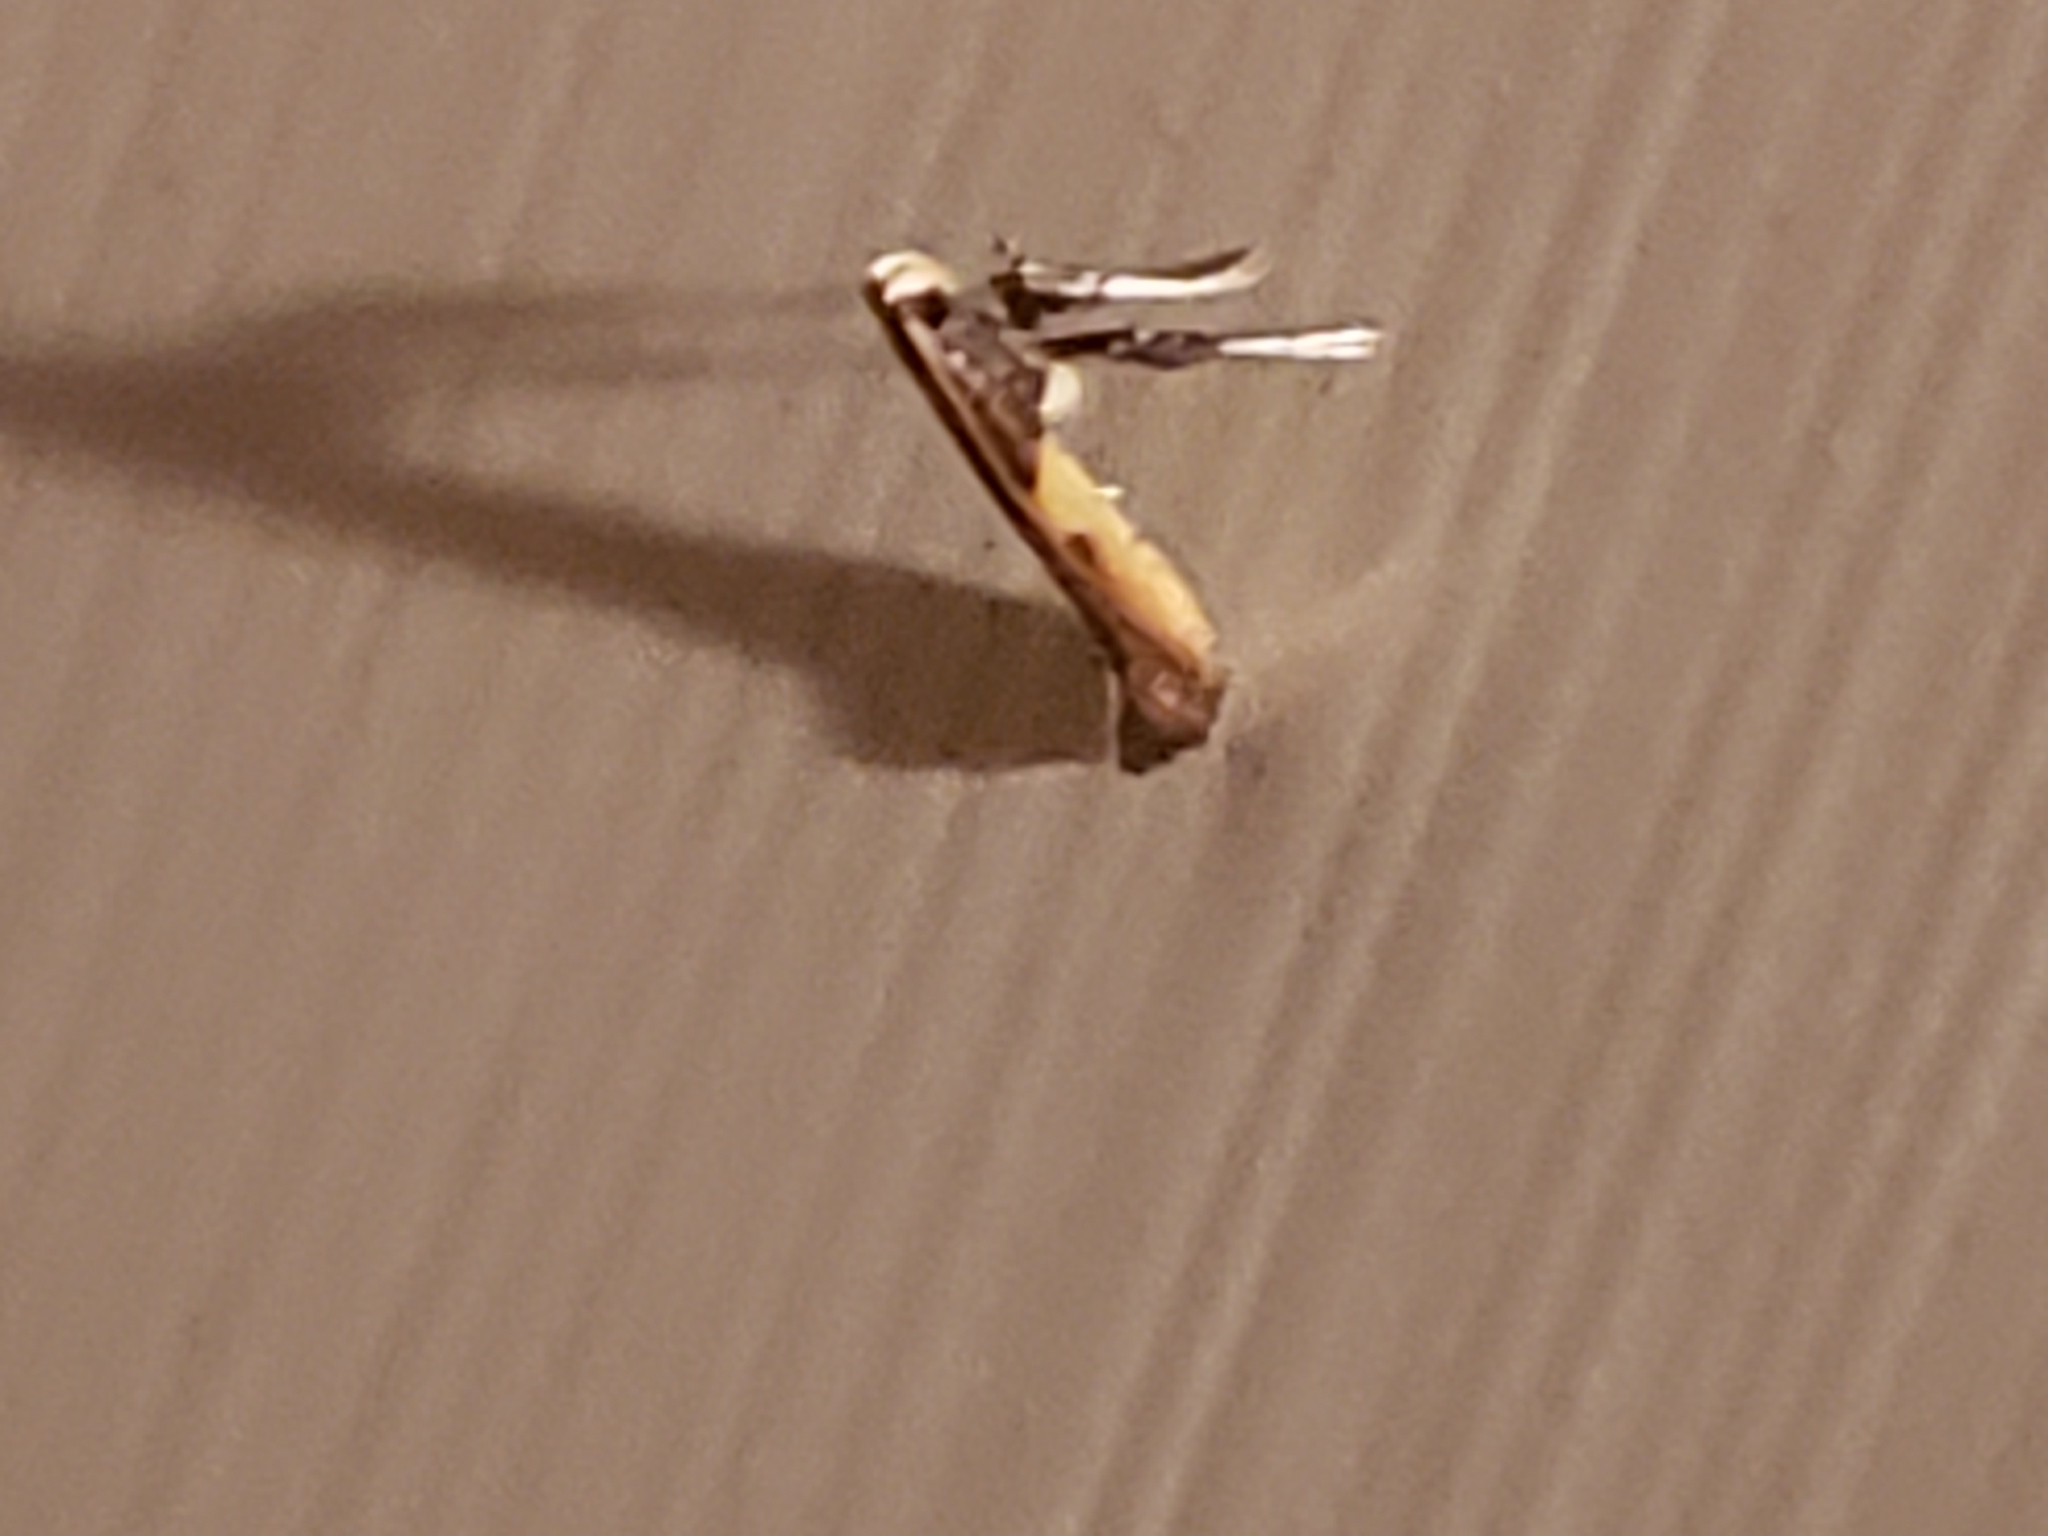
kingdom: Animalia
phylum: Arthropoda
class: Insecta
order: Lepidoptera
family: Gracillariidae
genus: Caloptilia
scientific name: Caloptilia azaleella
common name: Azalea leafminer
